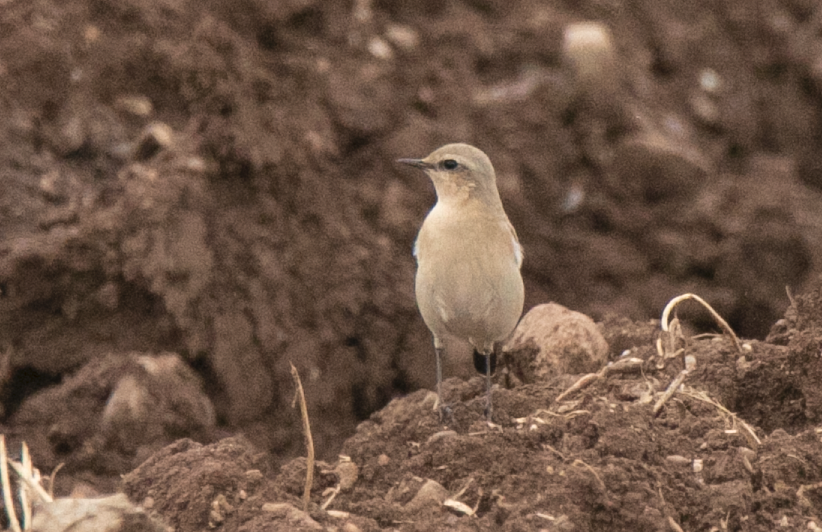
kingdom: Animalia
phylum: Chordata
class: Aves
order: Passeriformes
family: Muscicapidae
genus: Oenanthe
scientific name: Oenanthe oenanthe
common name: Northern wheatear
